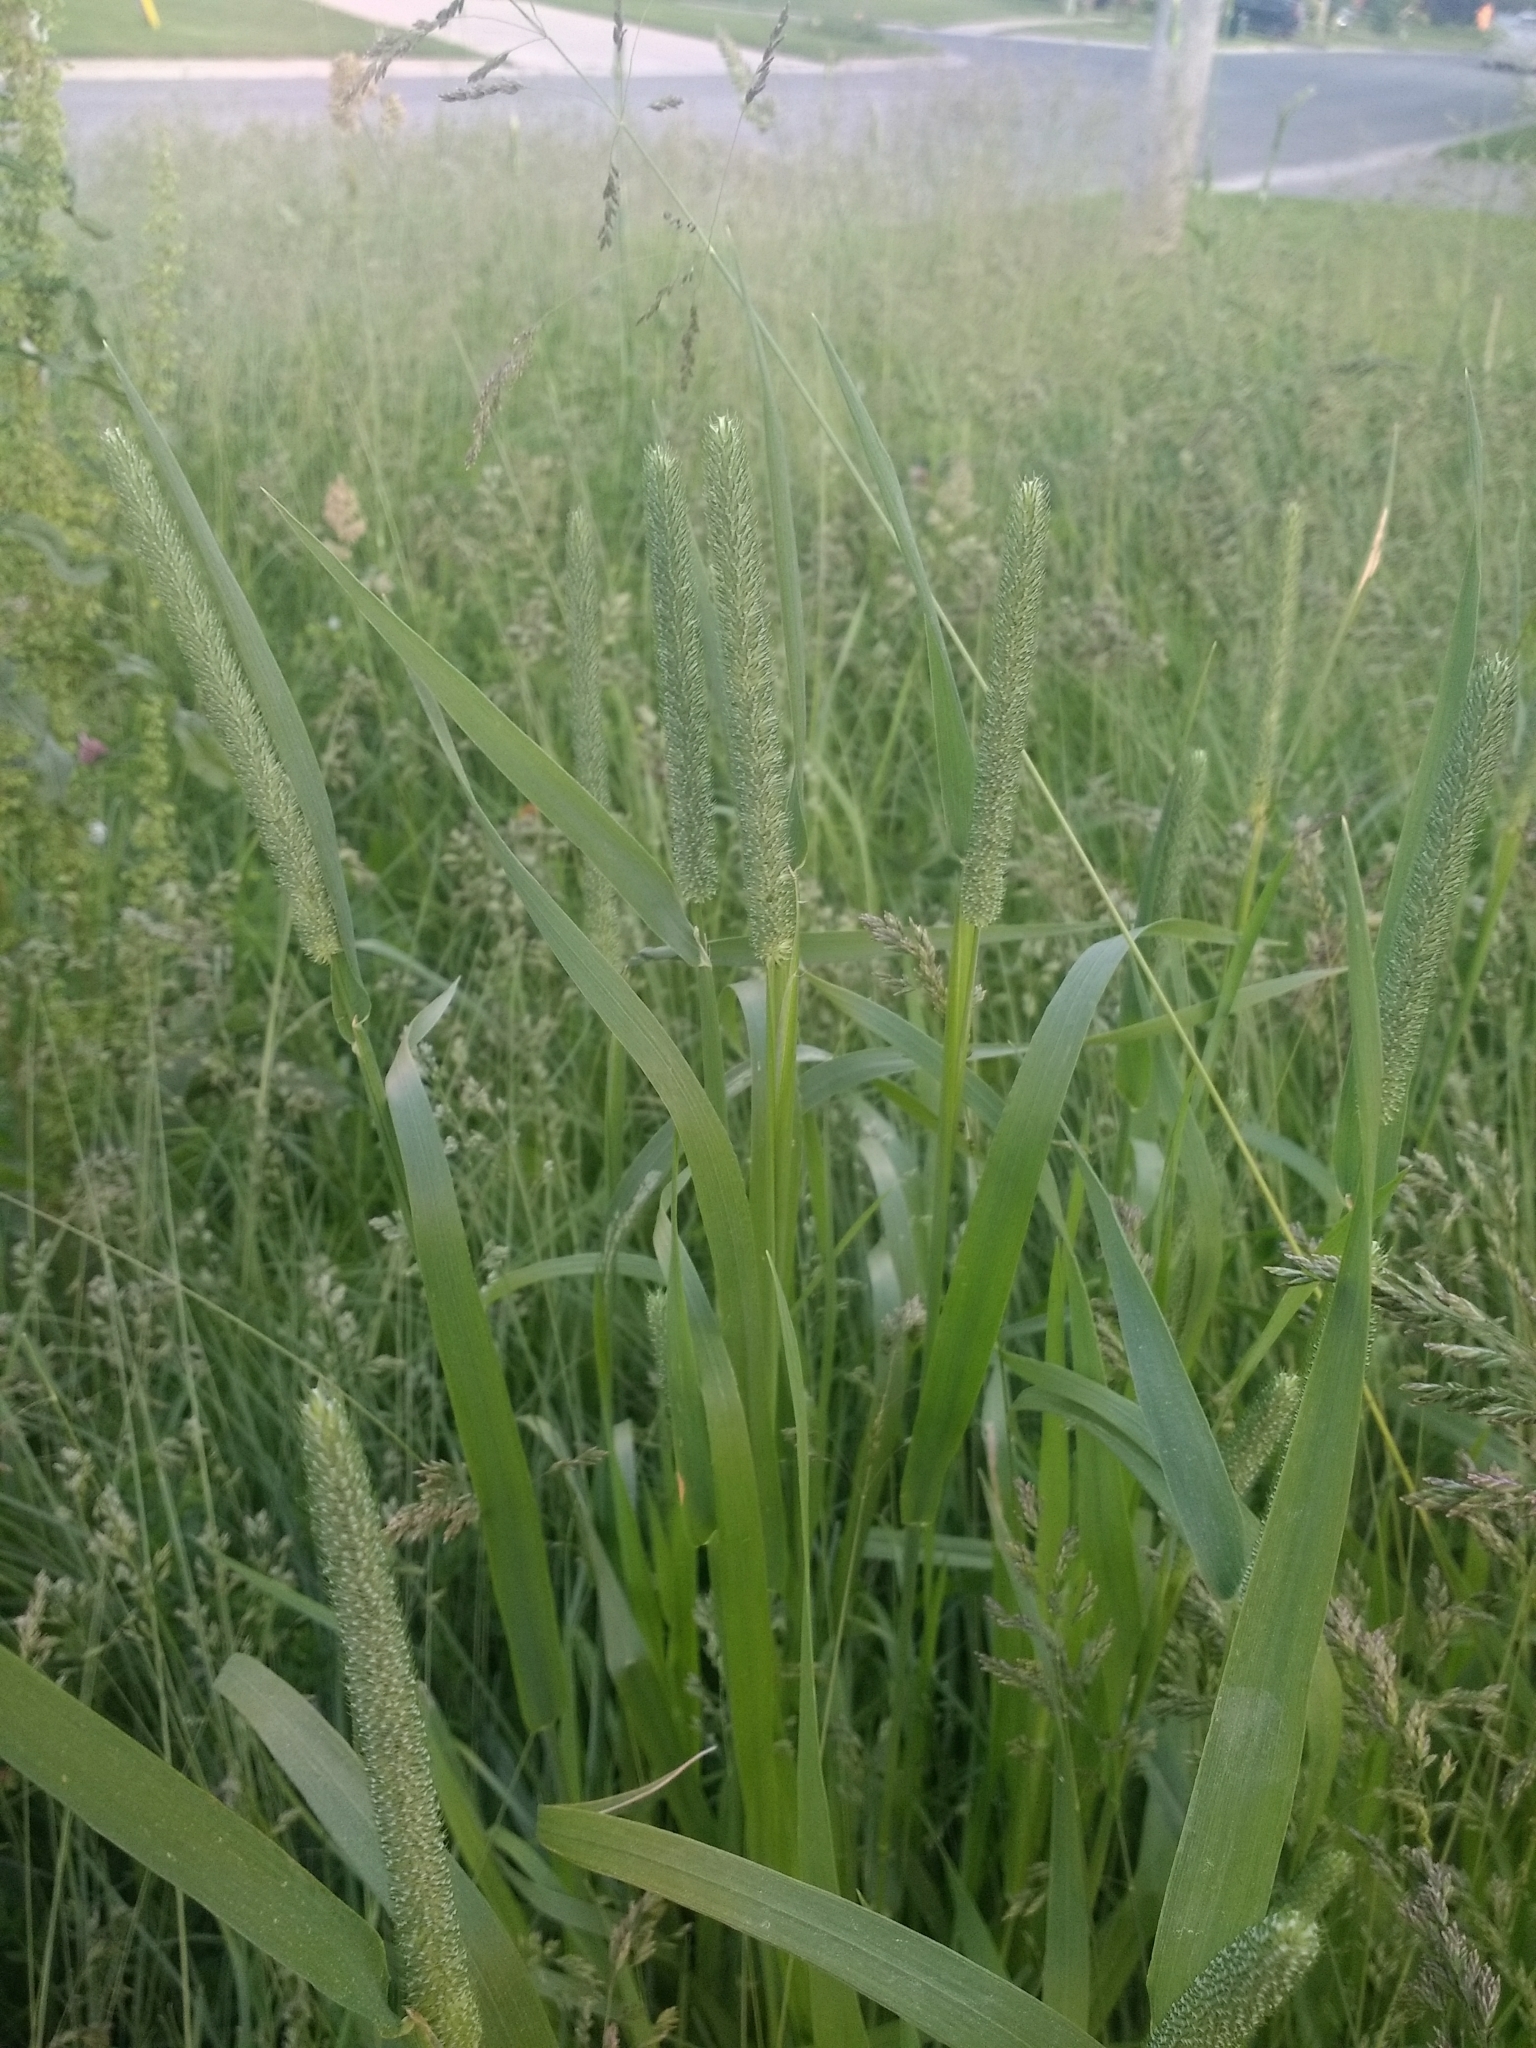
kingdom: Plantae
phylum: Tracheophyta
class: Liliopsida
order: Poales
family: Poaceae
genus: Phleum
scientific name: Phleum pratense
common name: Timothy grass
